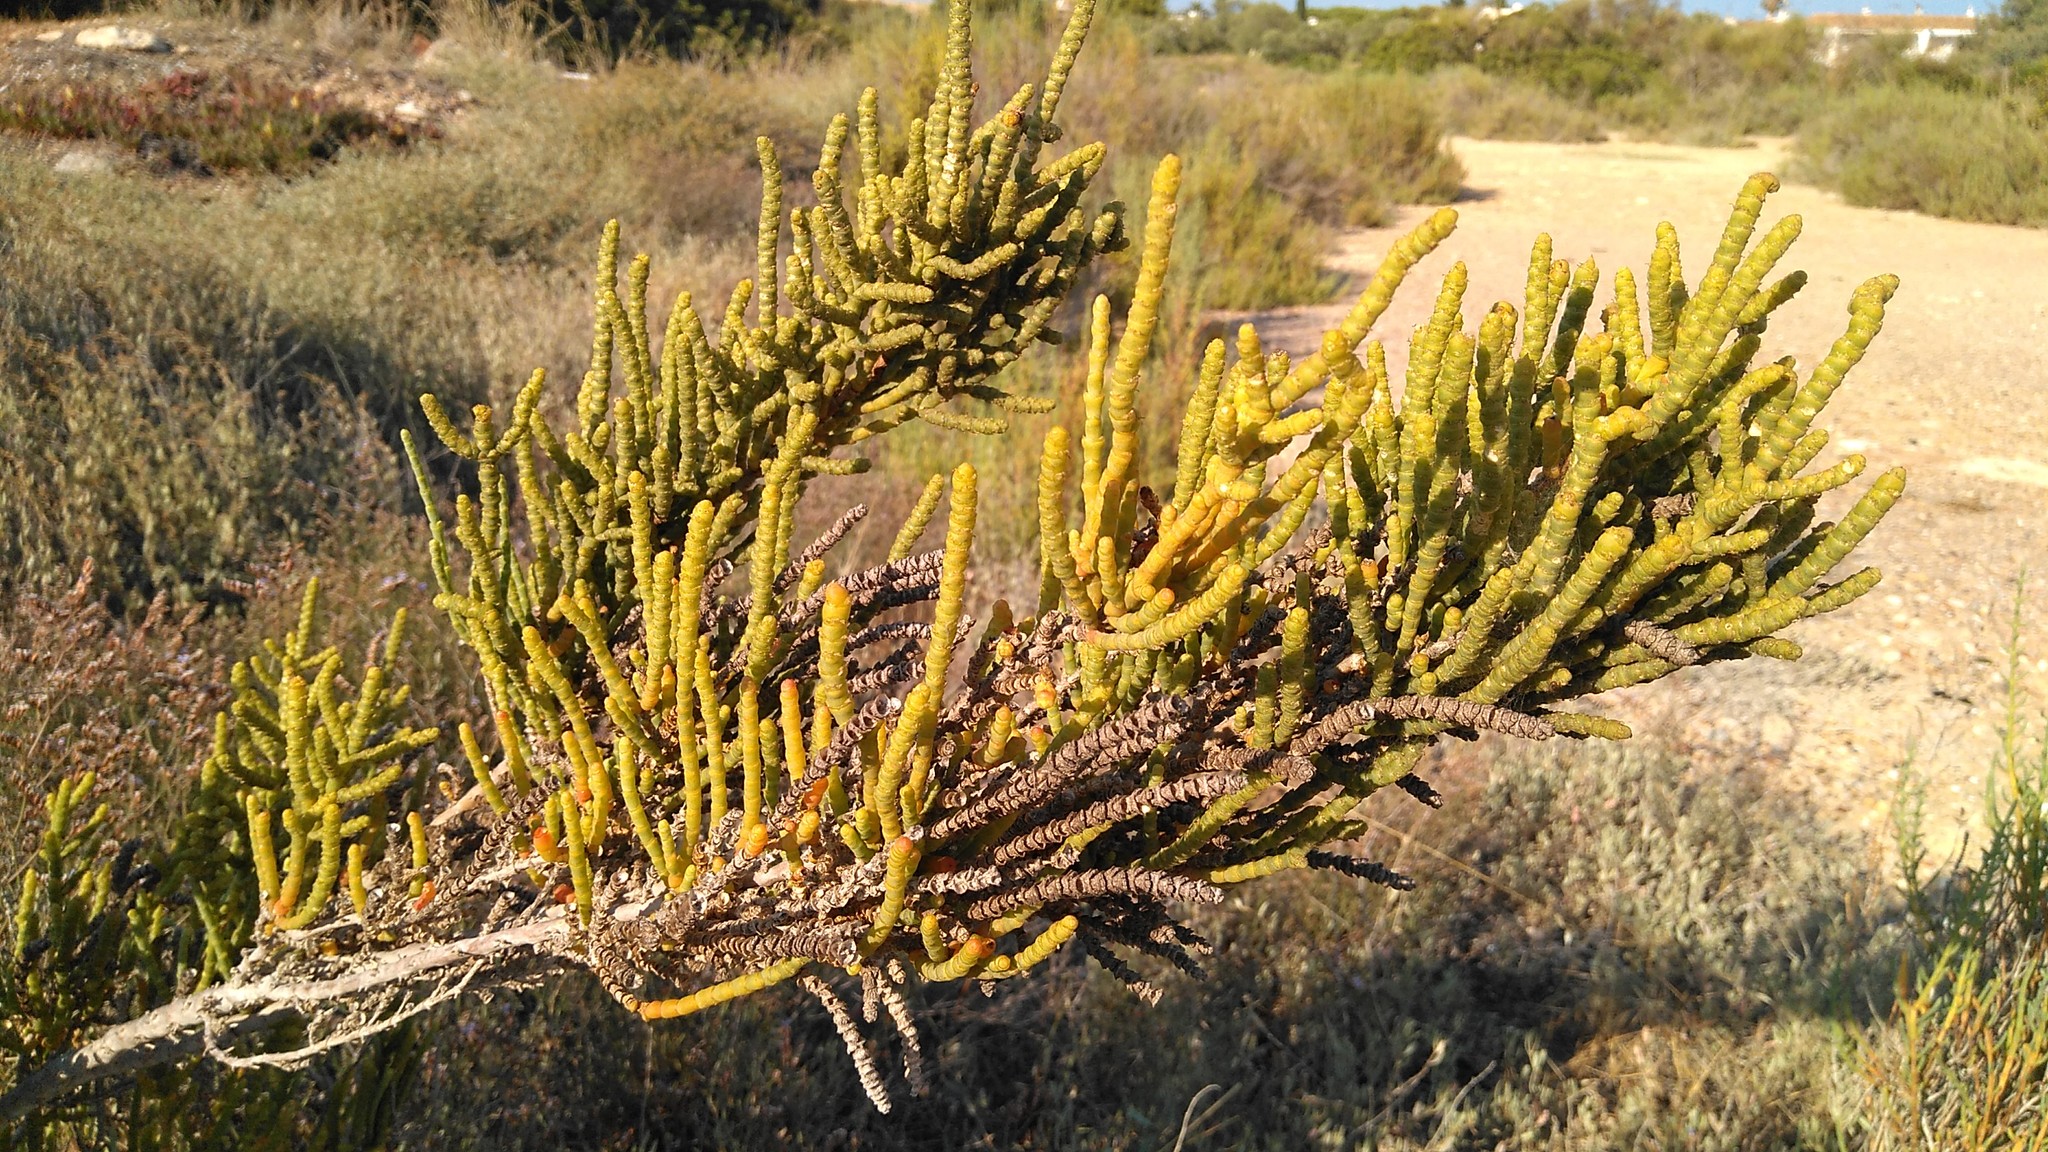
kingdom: Plantae
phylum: Tracheophyta
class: Magnoliopsida
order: Caryophyllales
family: Amaranthaceae
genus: Arthrocaulon
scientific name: Arthrocaulon macrostachyum
